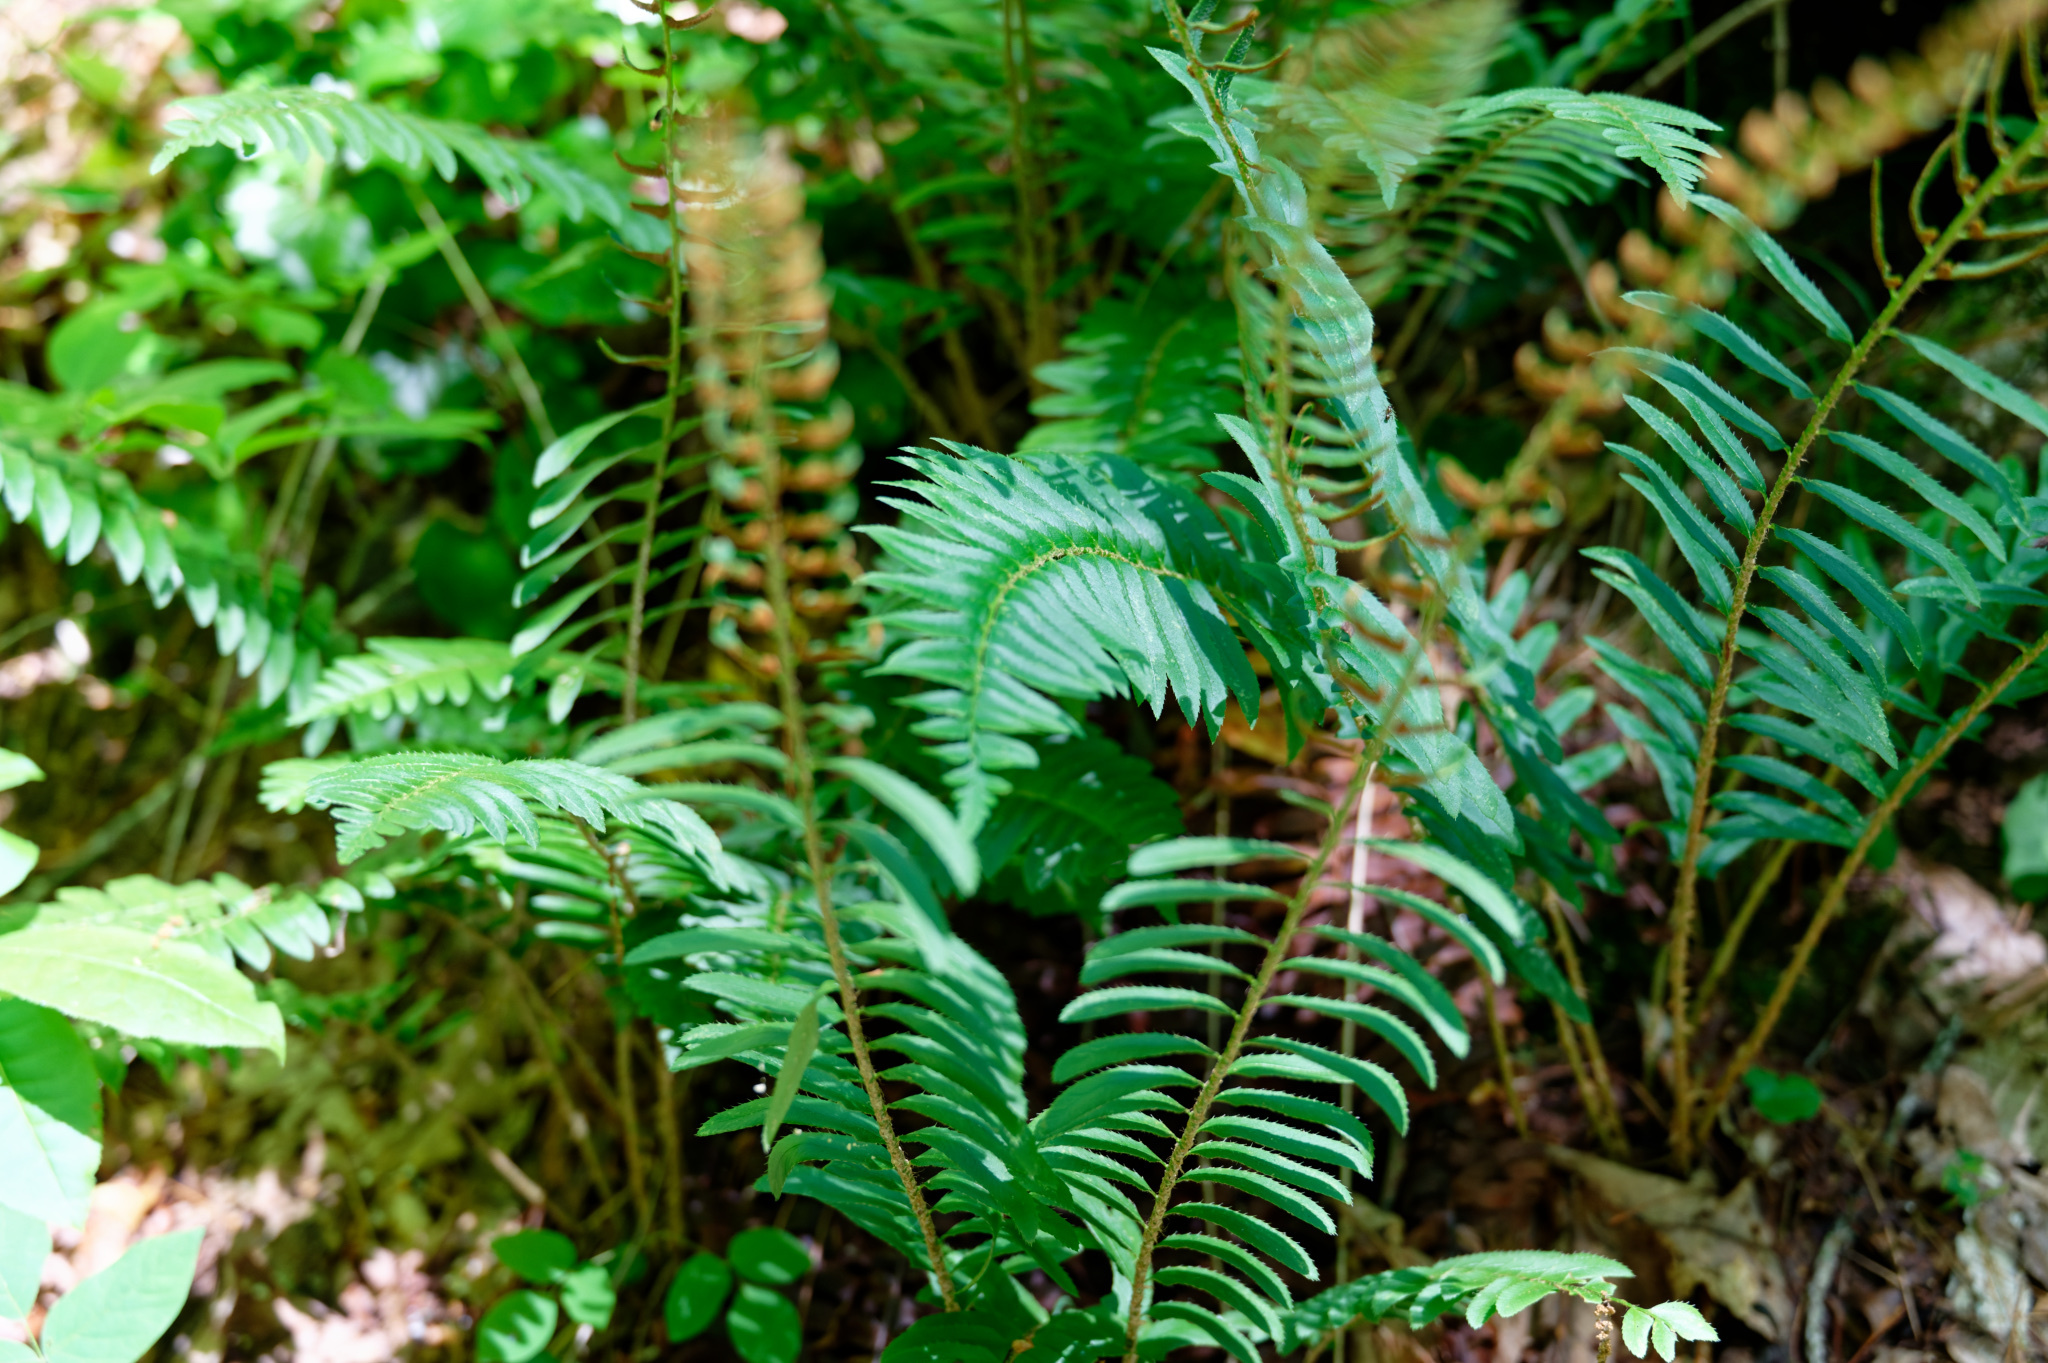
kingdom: Plantae
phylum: Tracheophyta
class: Polypodiopsida
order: Polypodiales
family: Dryopteridaceae
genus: Polystichum
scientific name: Polystichum acrostichoides
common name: Christmas fern
